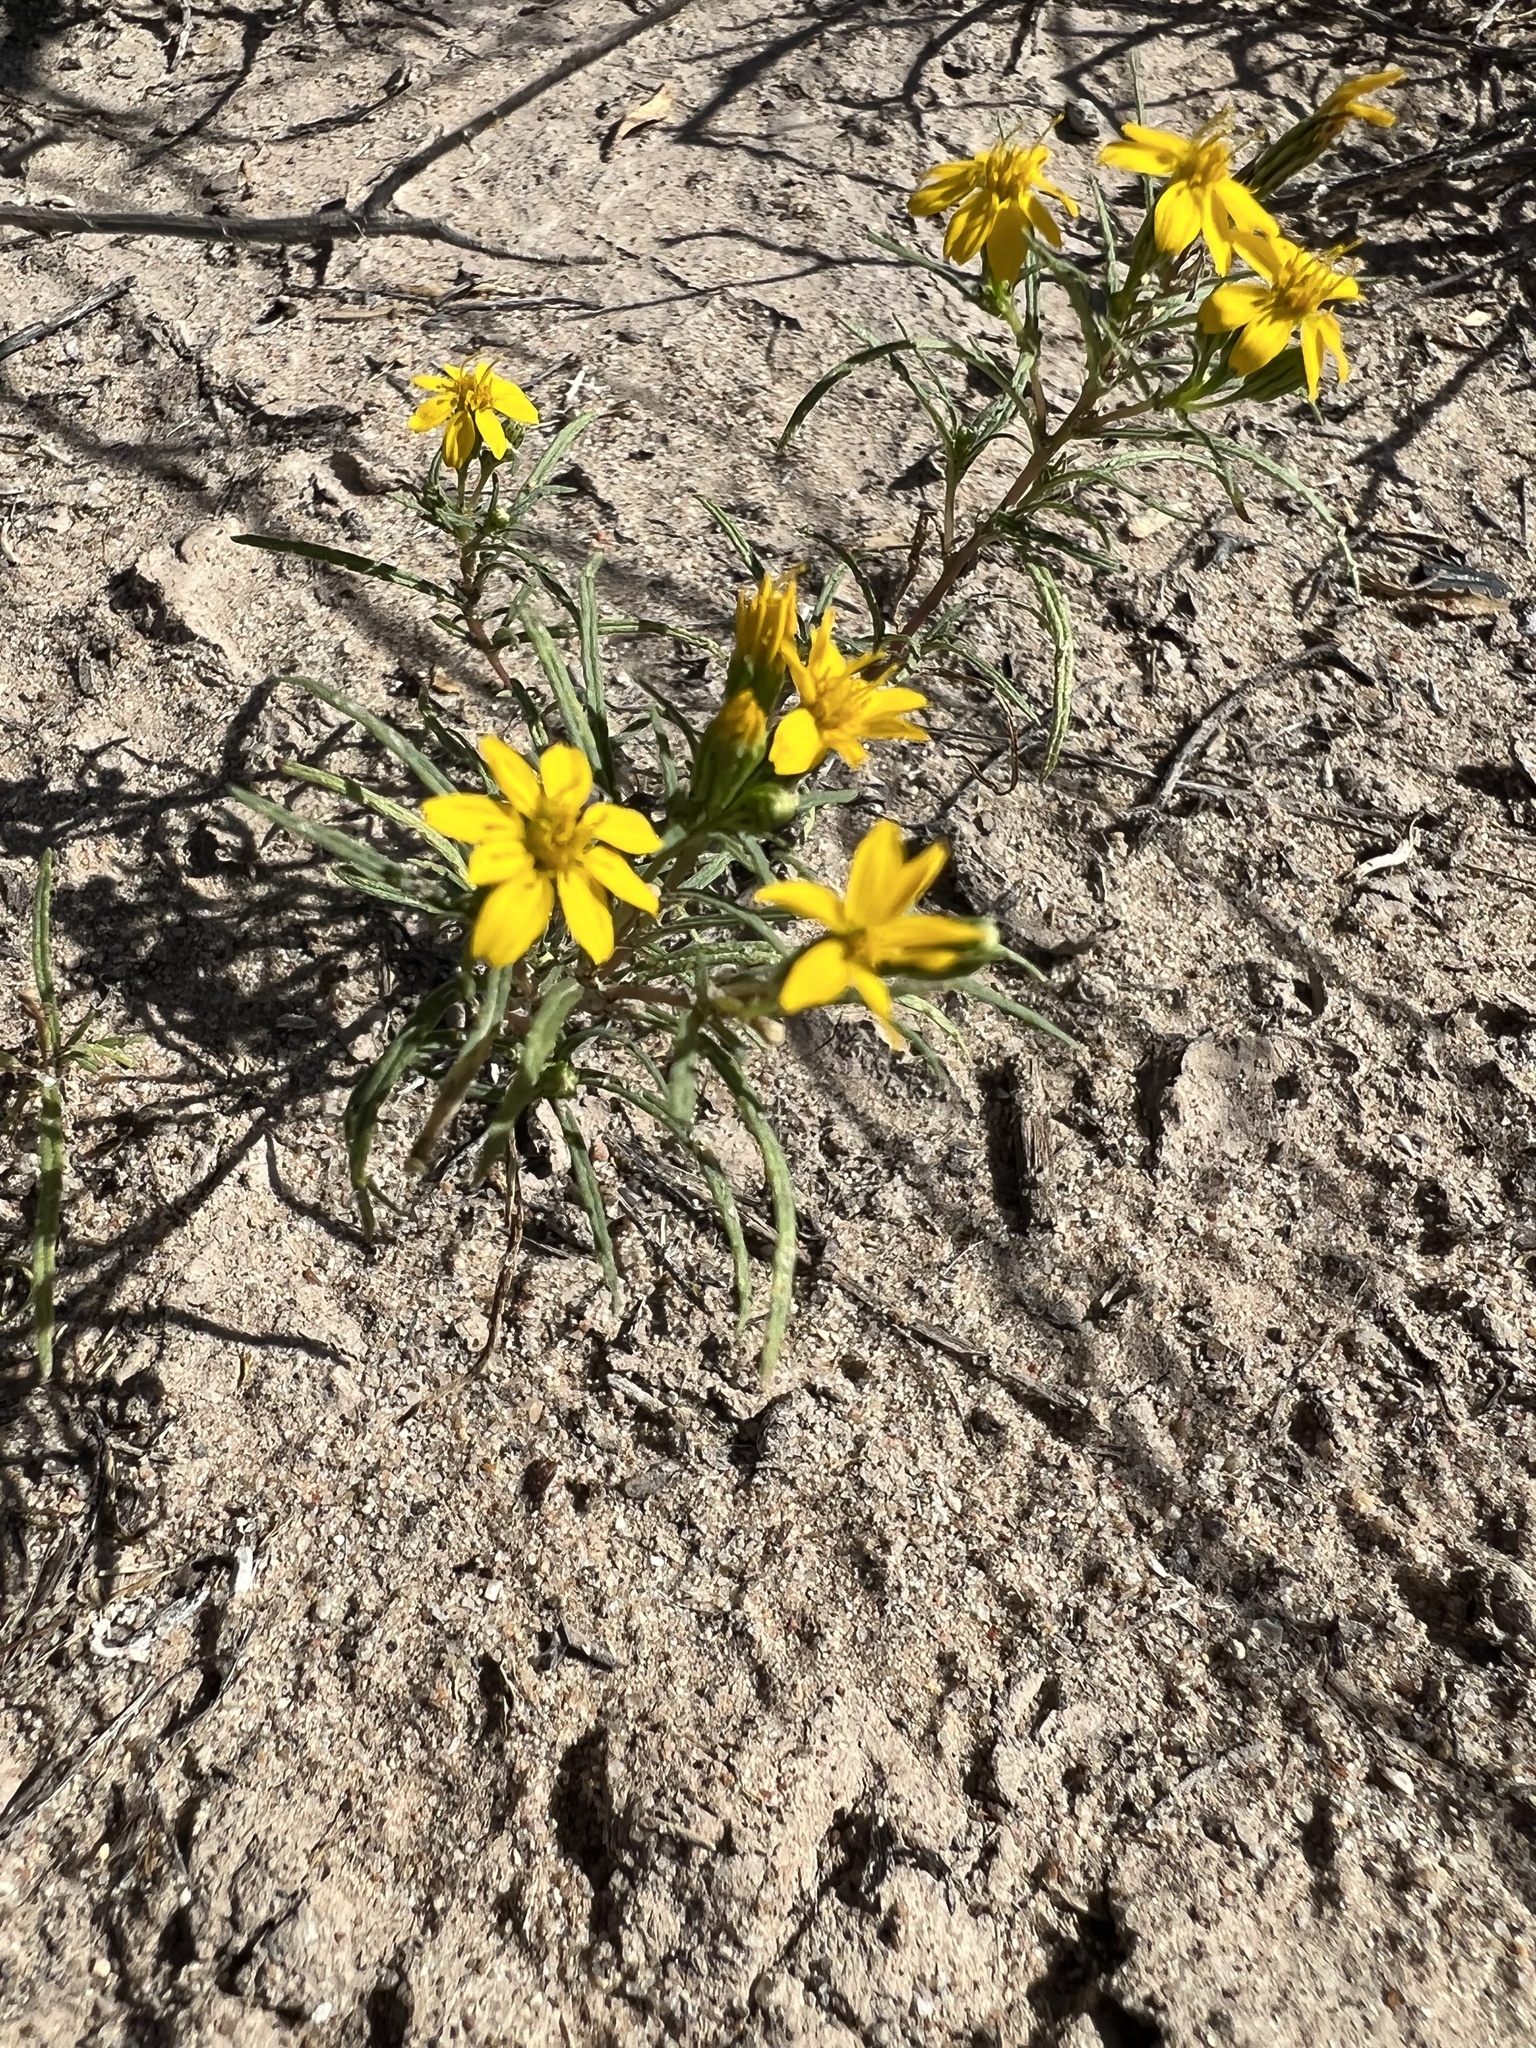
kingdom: Plantae
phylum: Tracheophyta
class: Magnoliopsida
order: Asterales
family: Asteraceae
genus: Pectis
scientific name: Pectis papposa
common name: Many-bristle chinchweed
